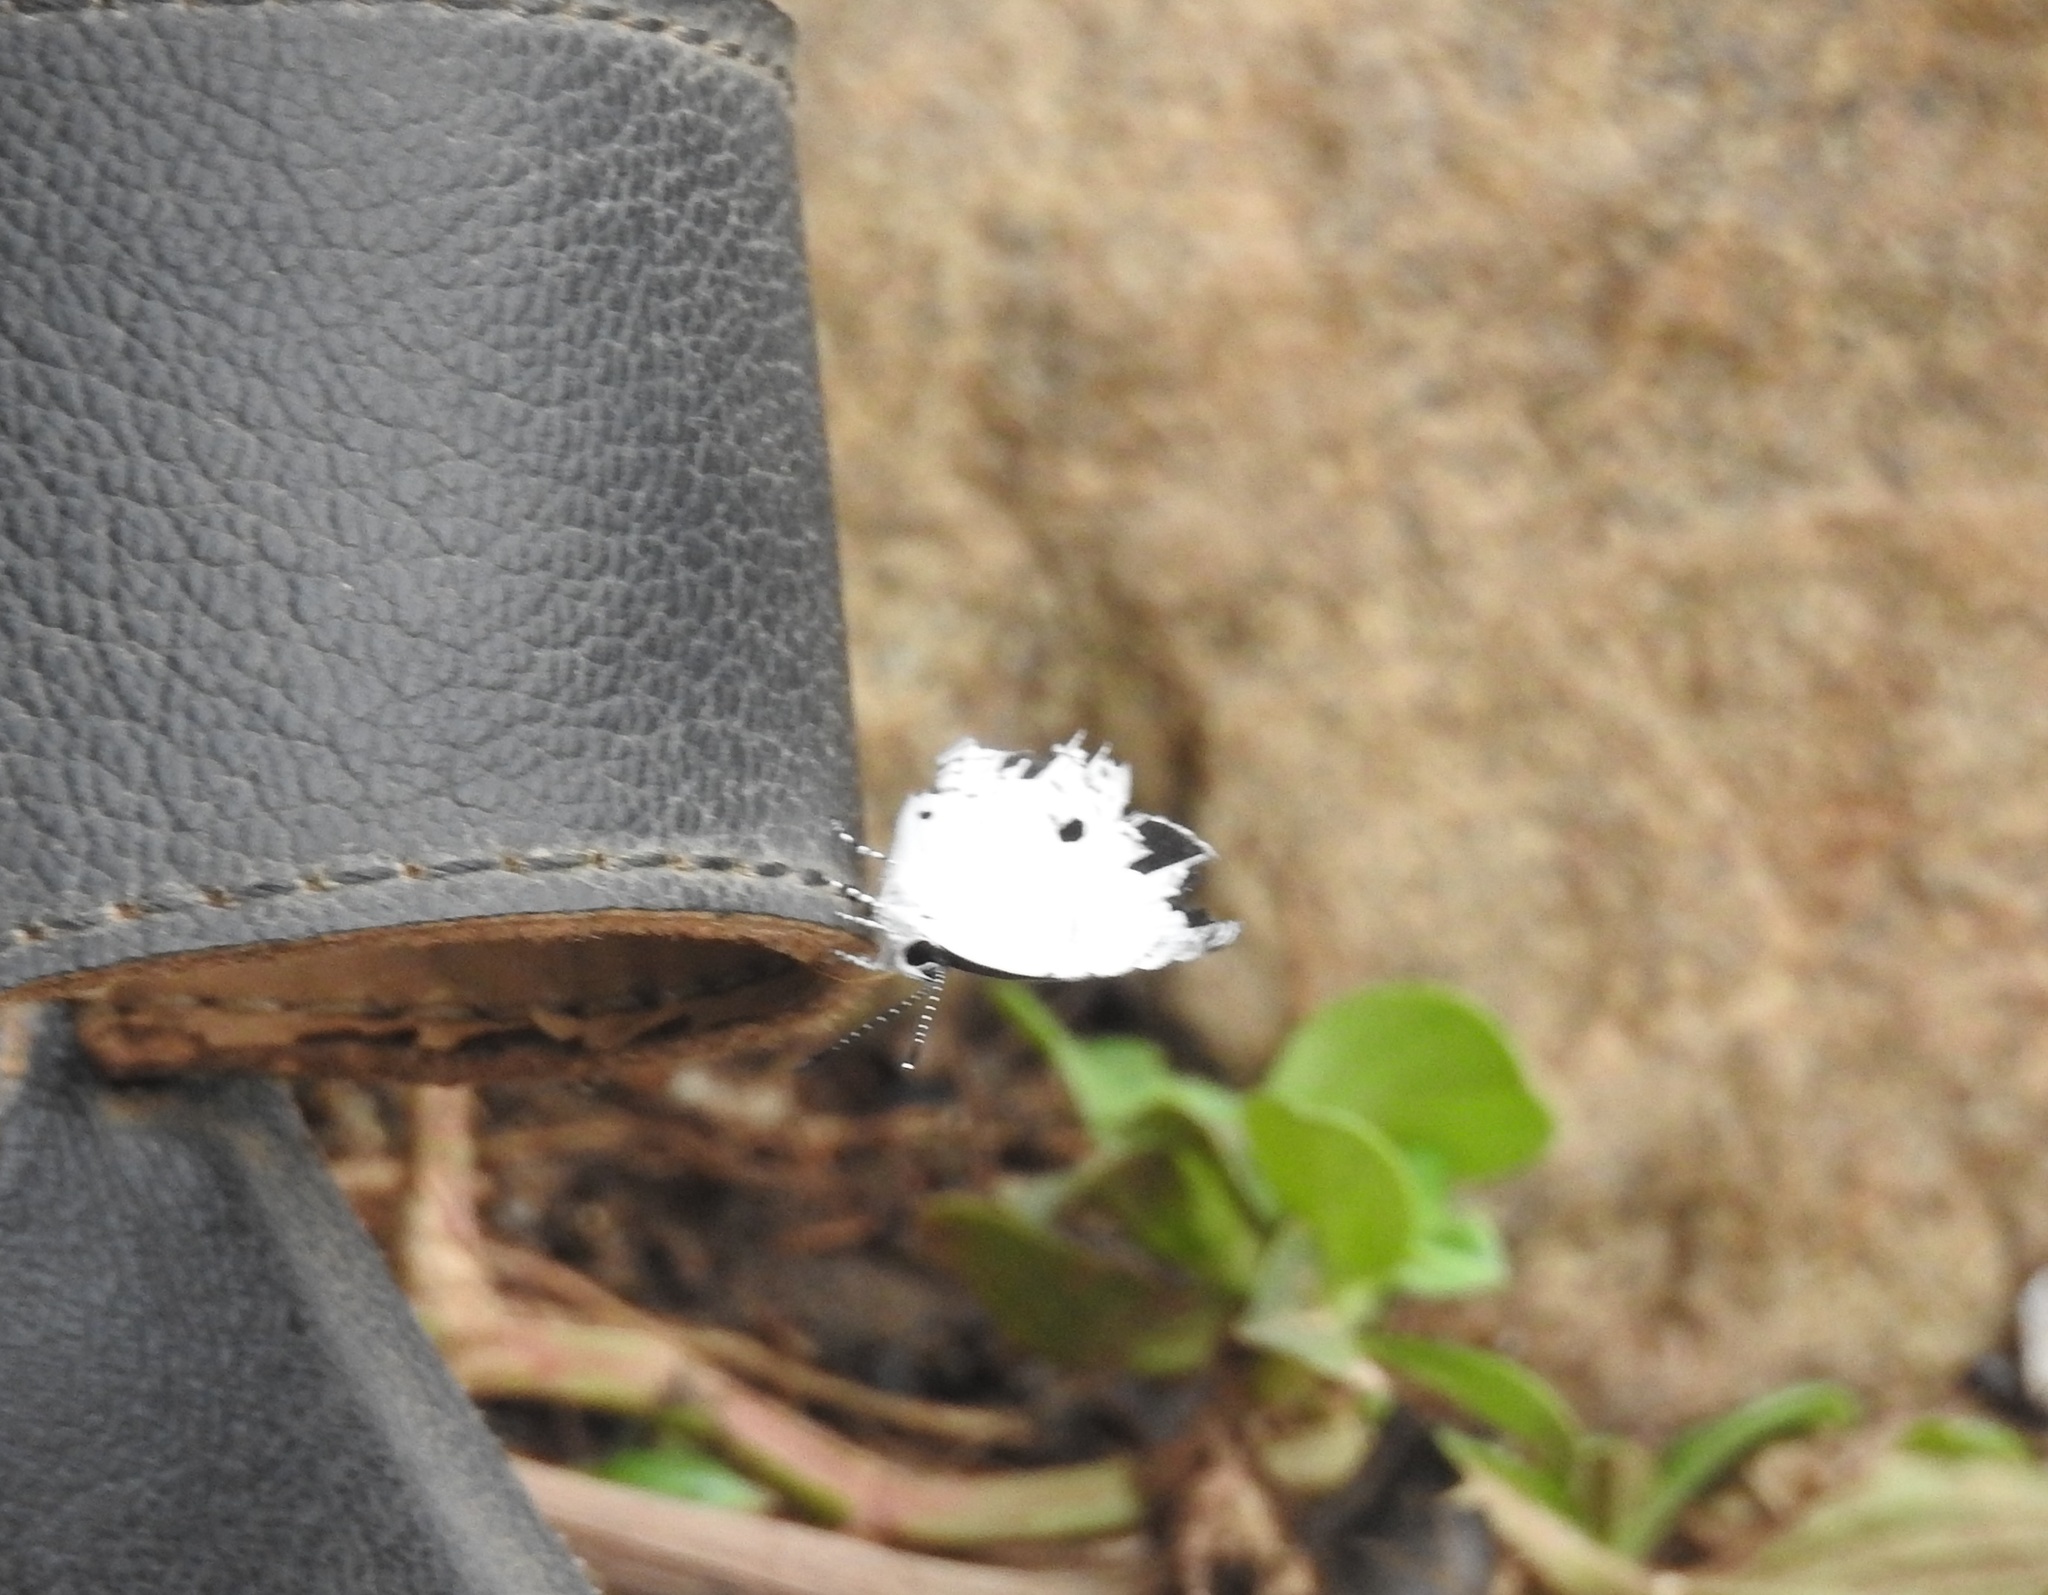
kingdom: Animalia
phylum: Arthropoda
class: Insecta
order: Lepidoptera
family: Lycaenidae
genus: Neopithecops
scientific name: Neopithecops zalmora
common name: Quaker
